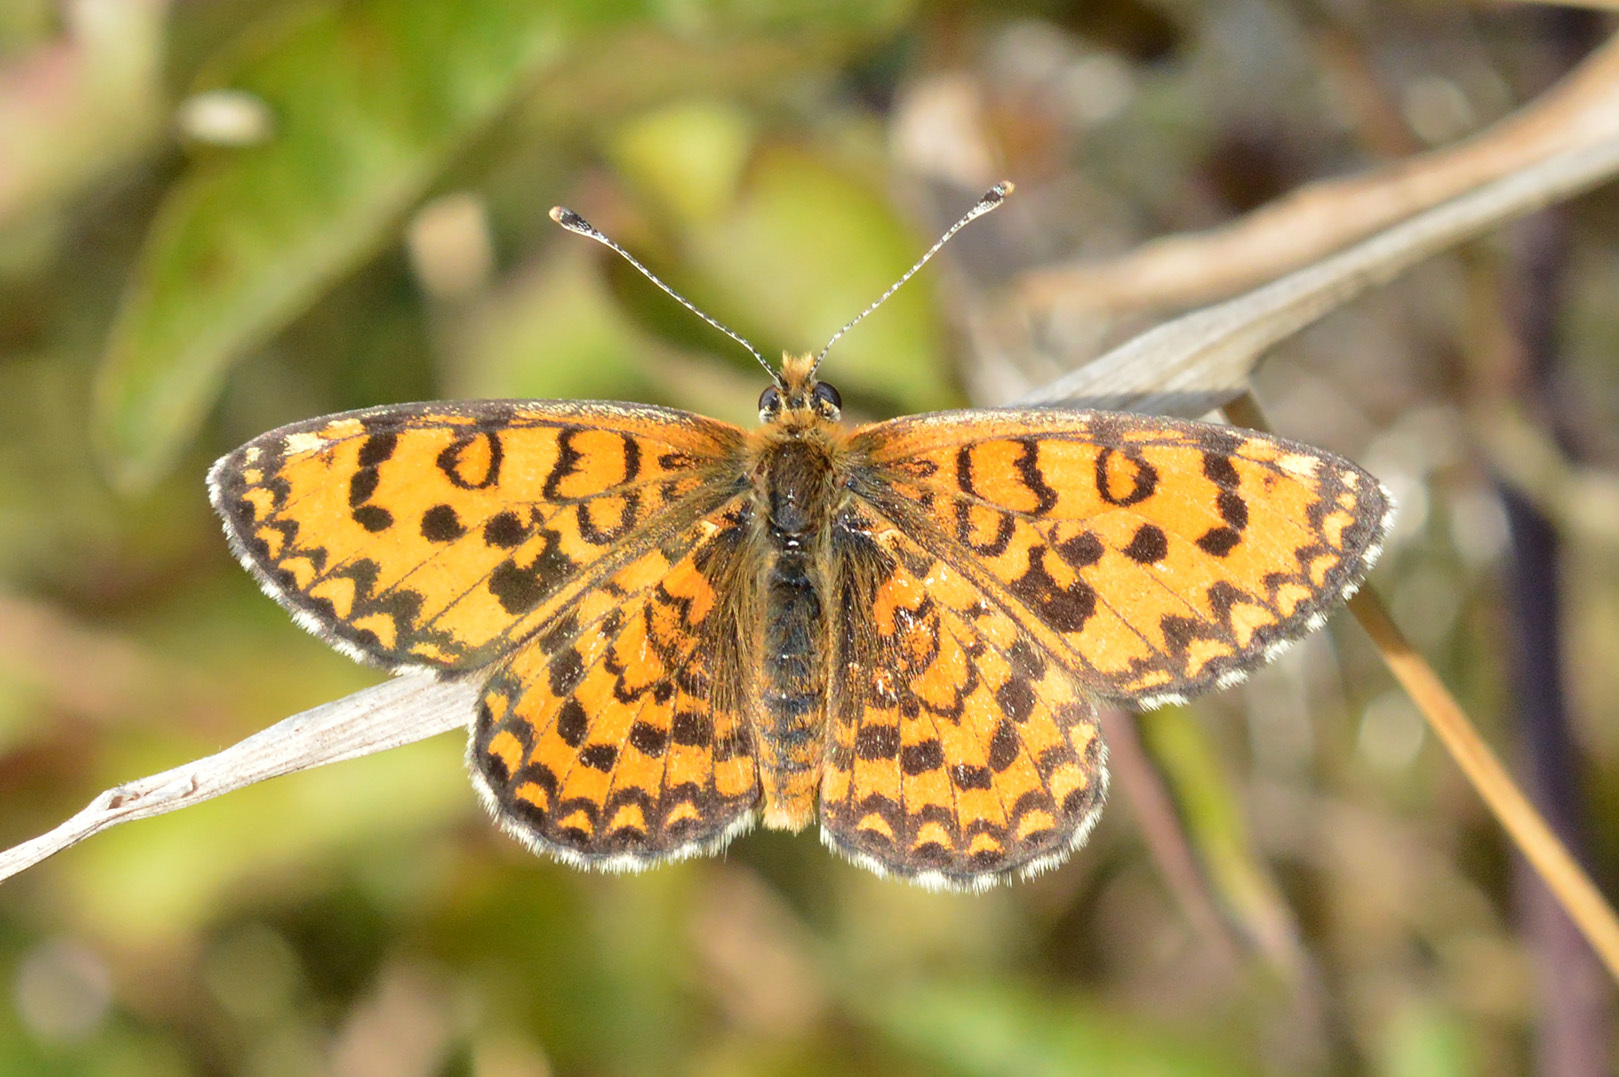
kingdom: Animalia
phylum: Arthropoda
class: Insecta
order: Lepidoptera
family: Nymphalidae
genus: Melitaea
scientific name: Melitaea trivia
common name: Lesser spotted fritillary
